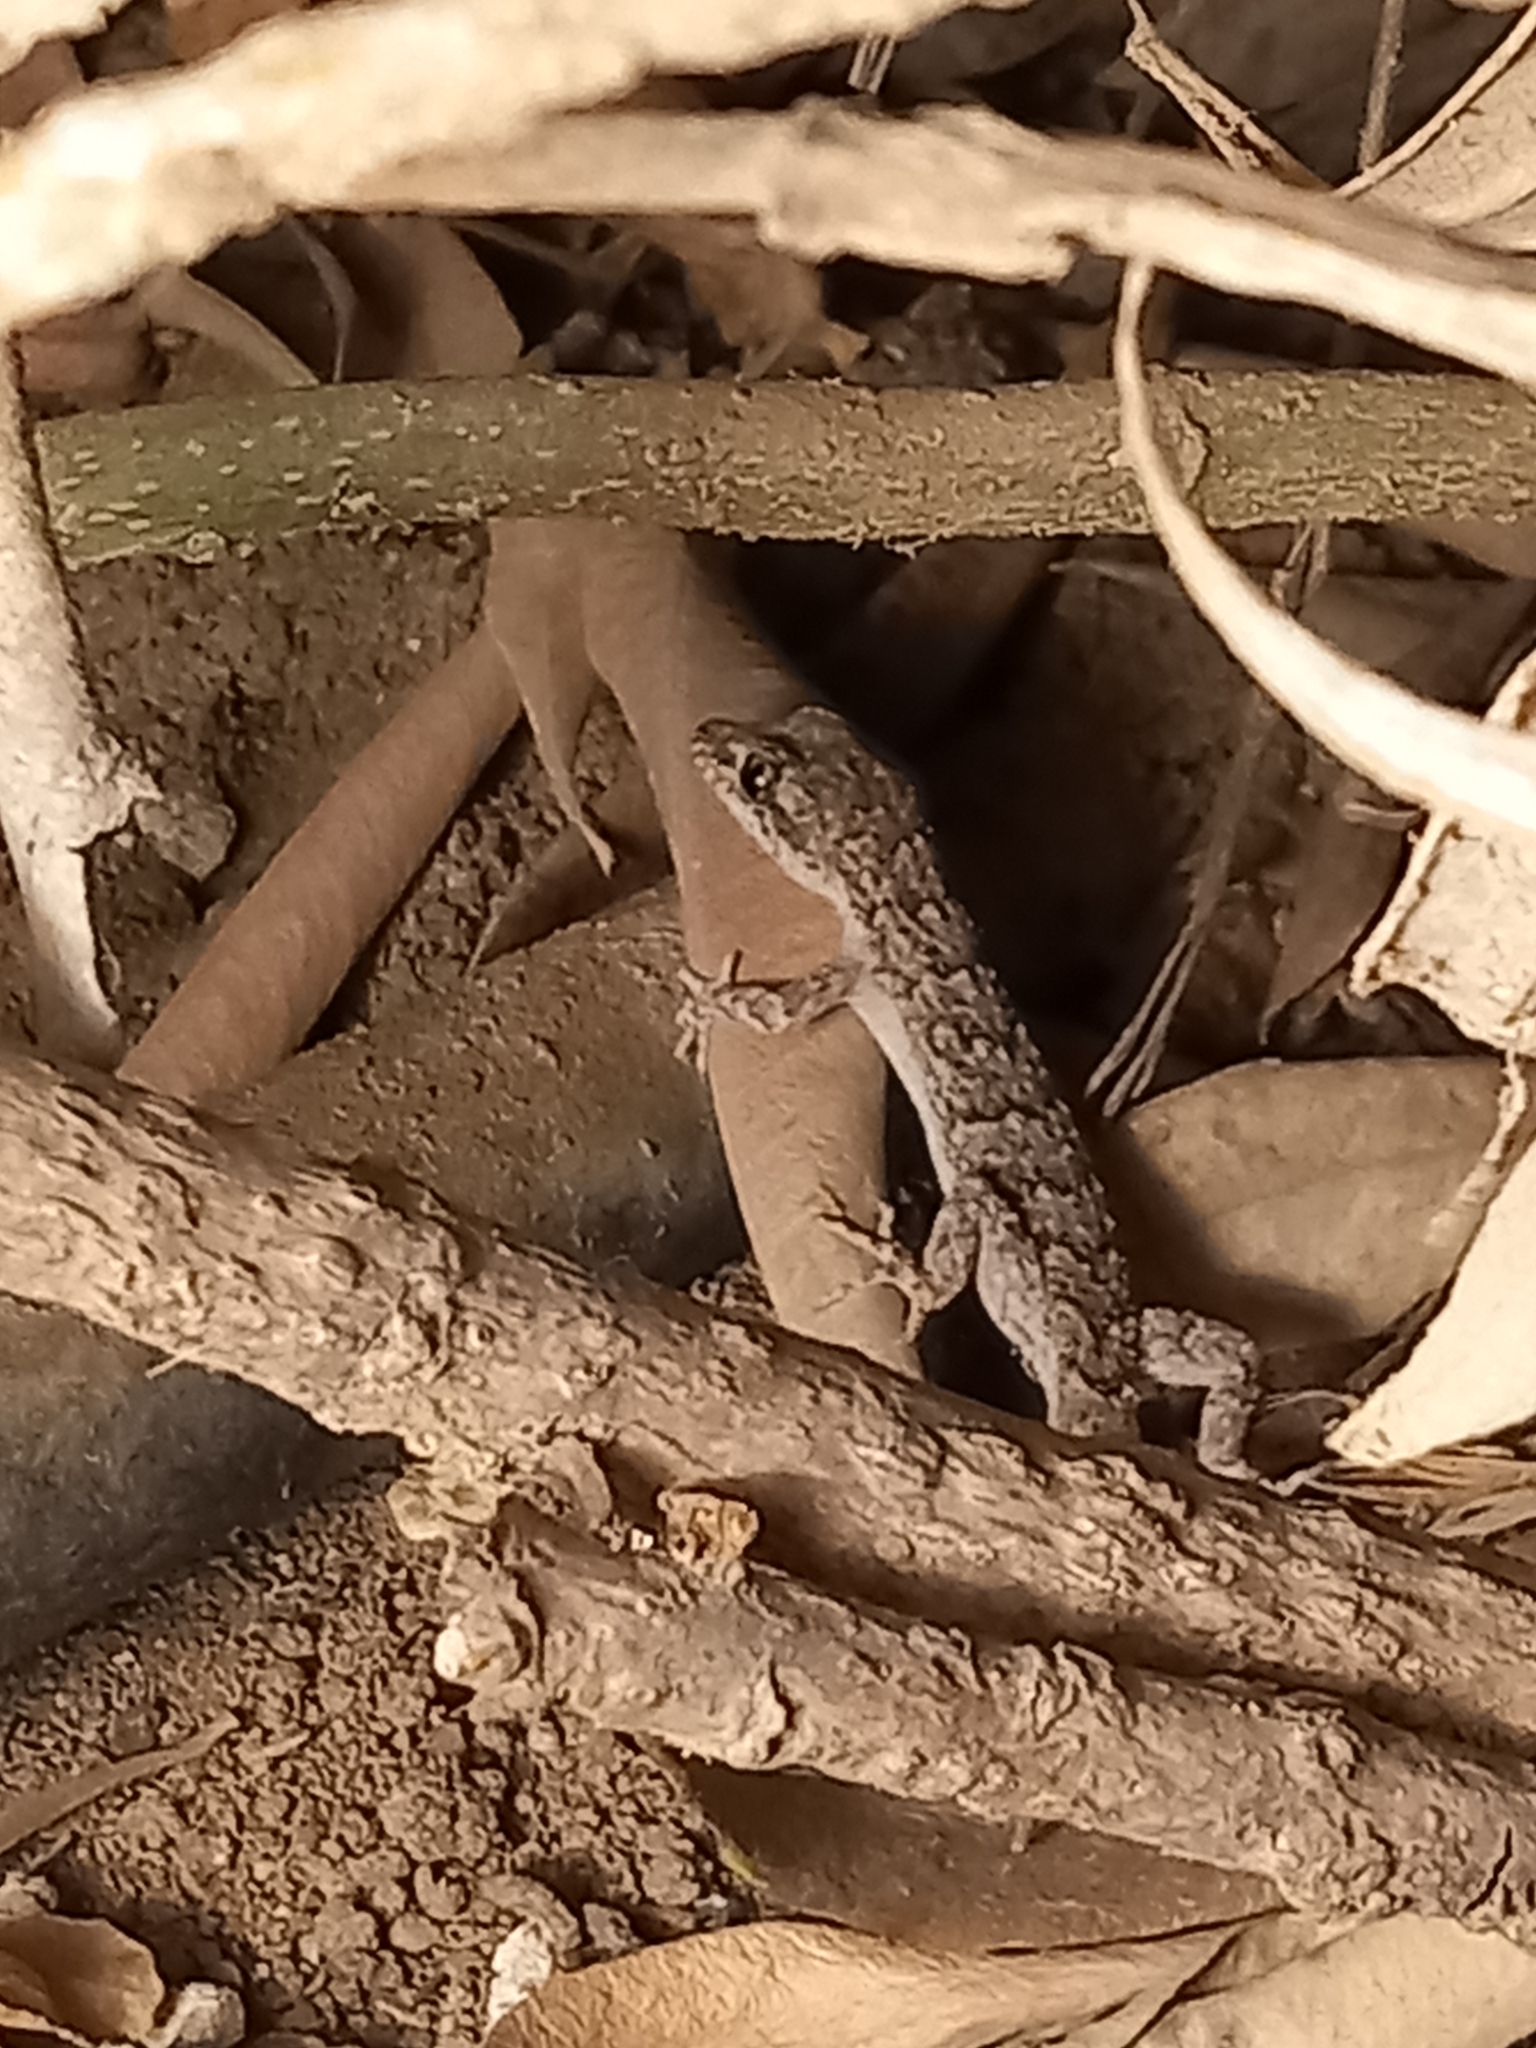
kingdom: Animalia
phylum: Chordata
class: Squamata
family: Gekkonidae
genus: Mediodactylus
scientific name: Mediodactylus orientalis
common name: Mediterranean thin-toed gecko
